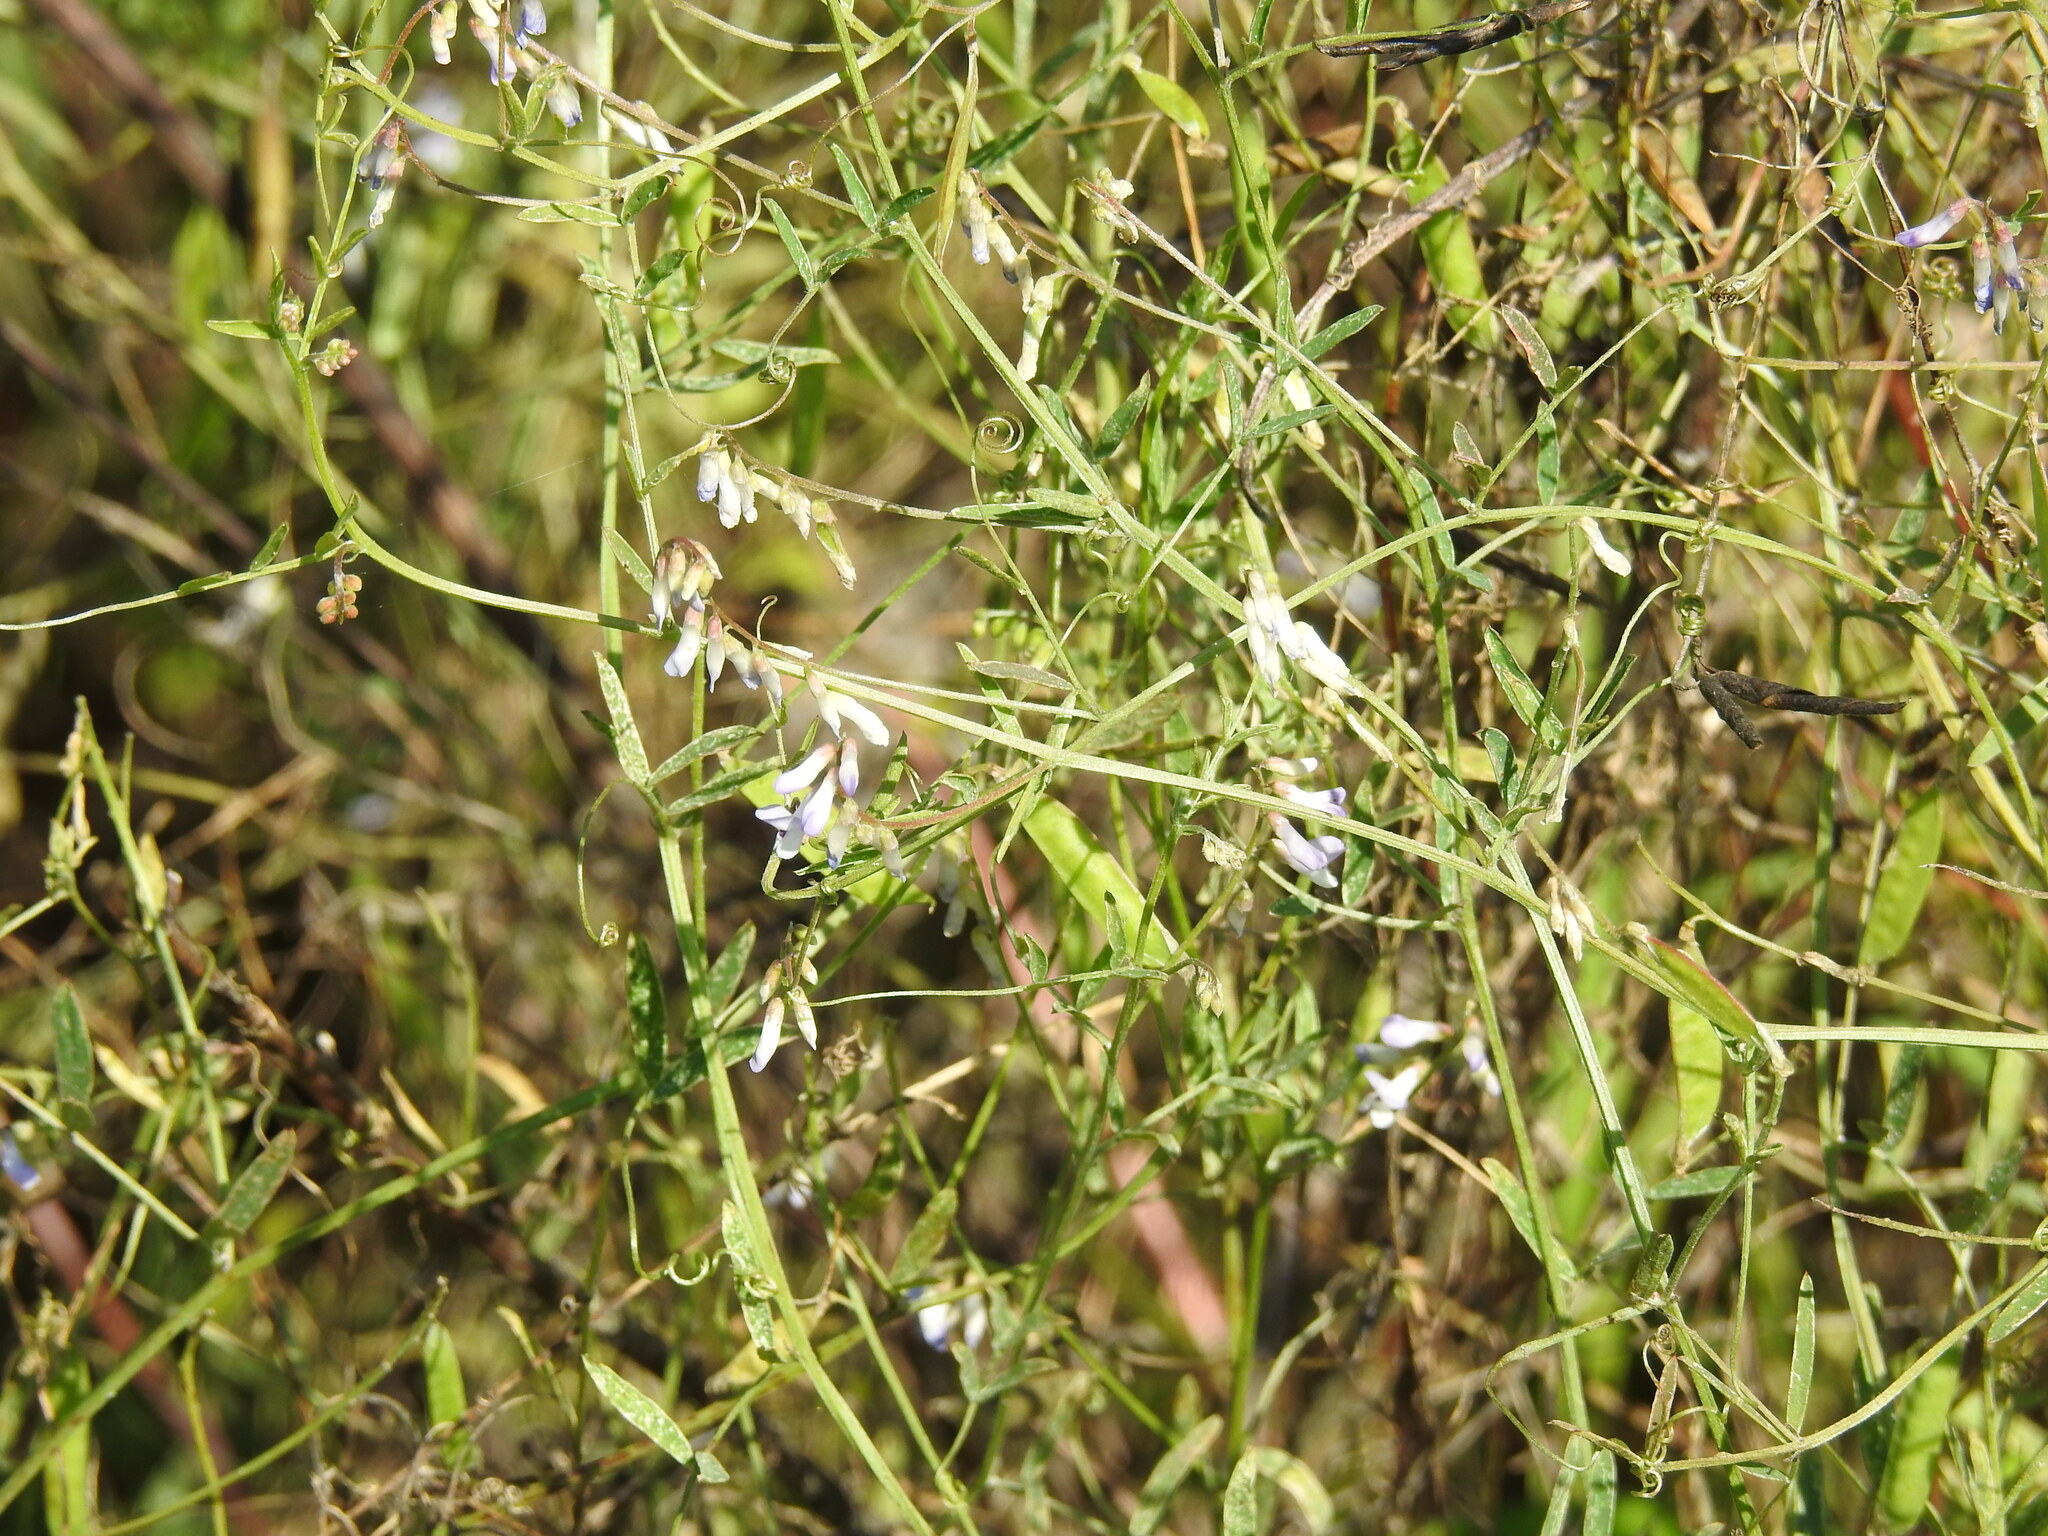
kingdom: Plantae
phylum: Tracheophyta
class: Magnoliopsida
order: Fabales
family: Fabaceae
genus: Vicia
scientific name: Vicia acutifolia
